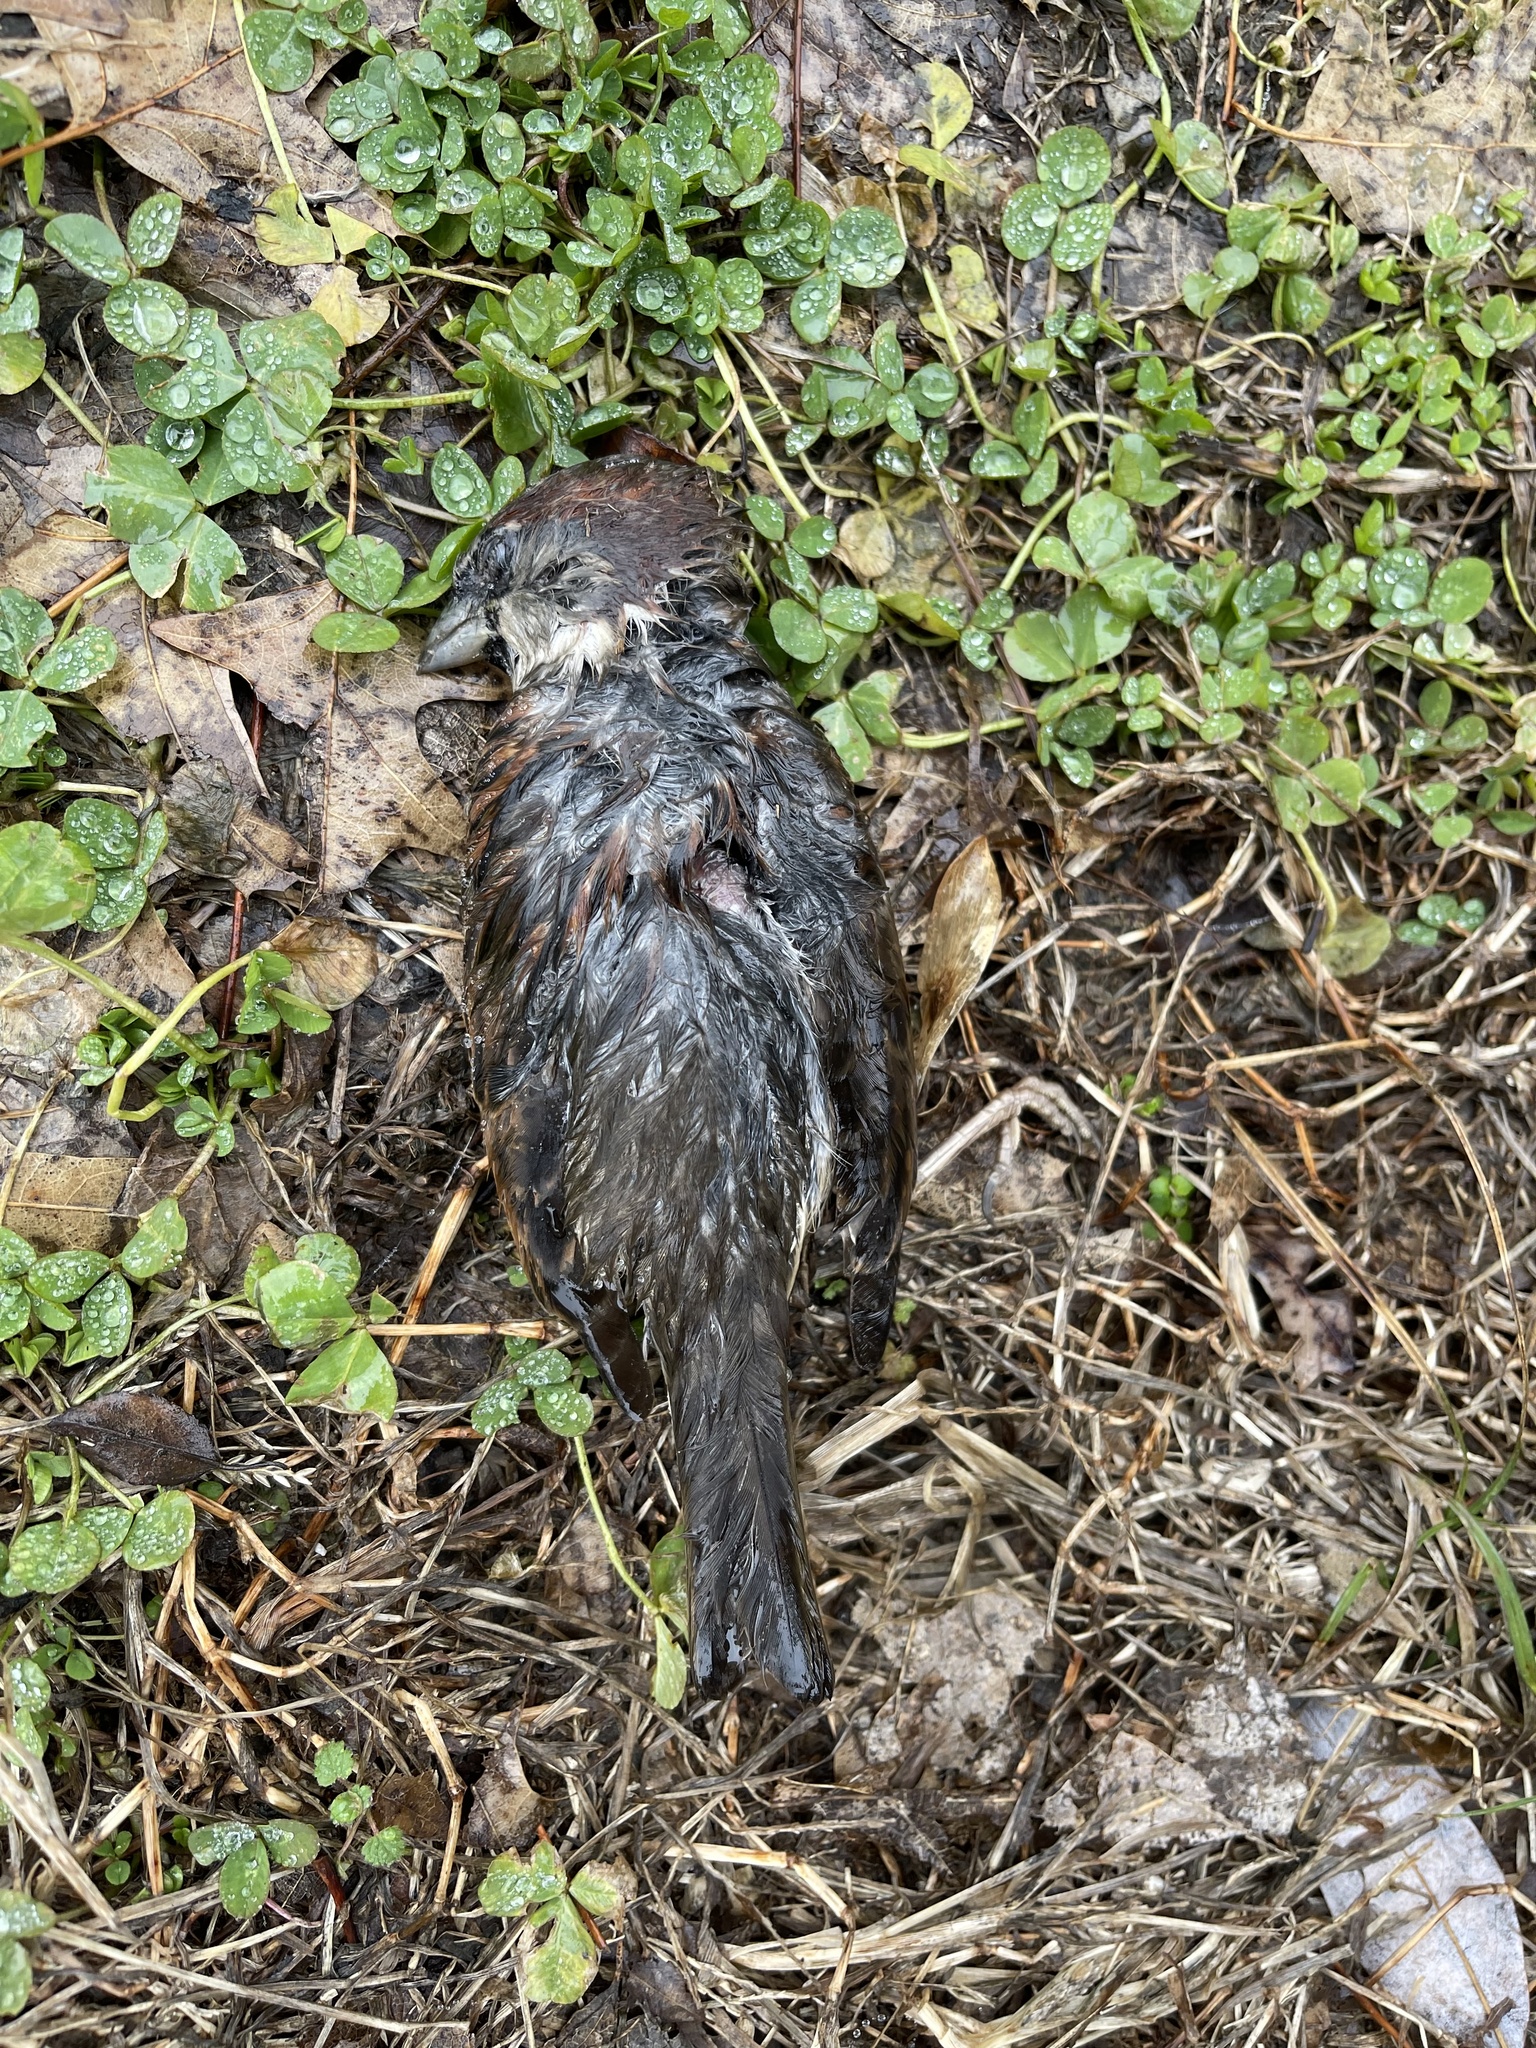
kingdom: Animalia
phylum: Chordata
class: Aves
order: Passeriformes
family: Passeridae
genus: Passer
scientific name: Passer domesticus
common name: House sparrow
